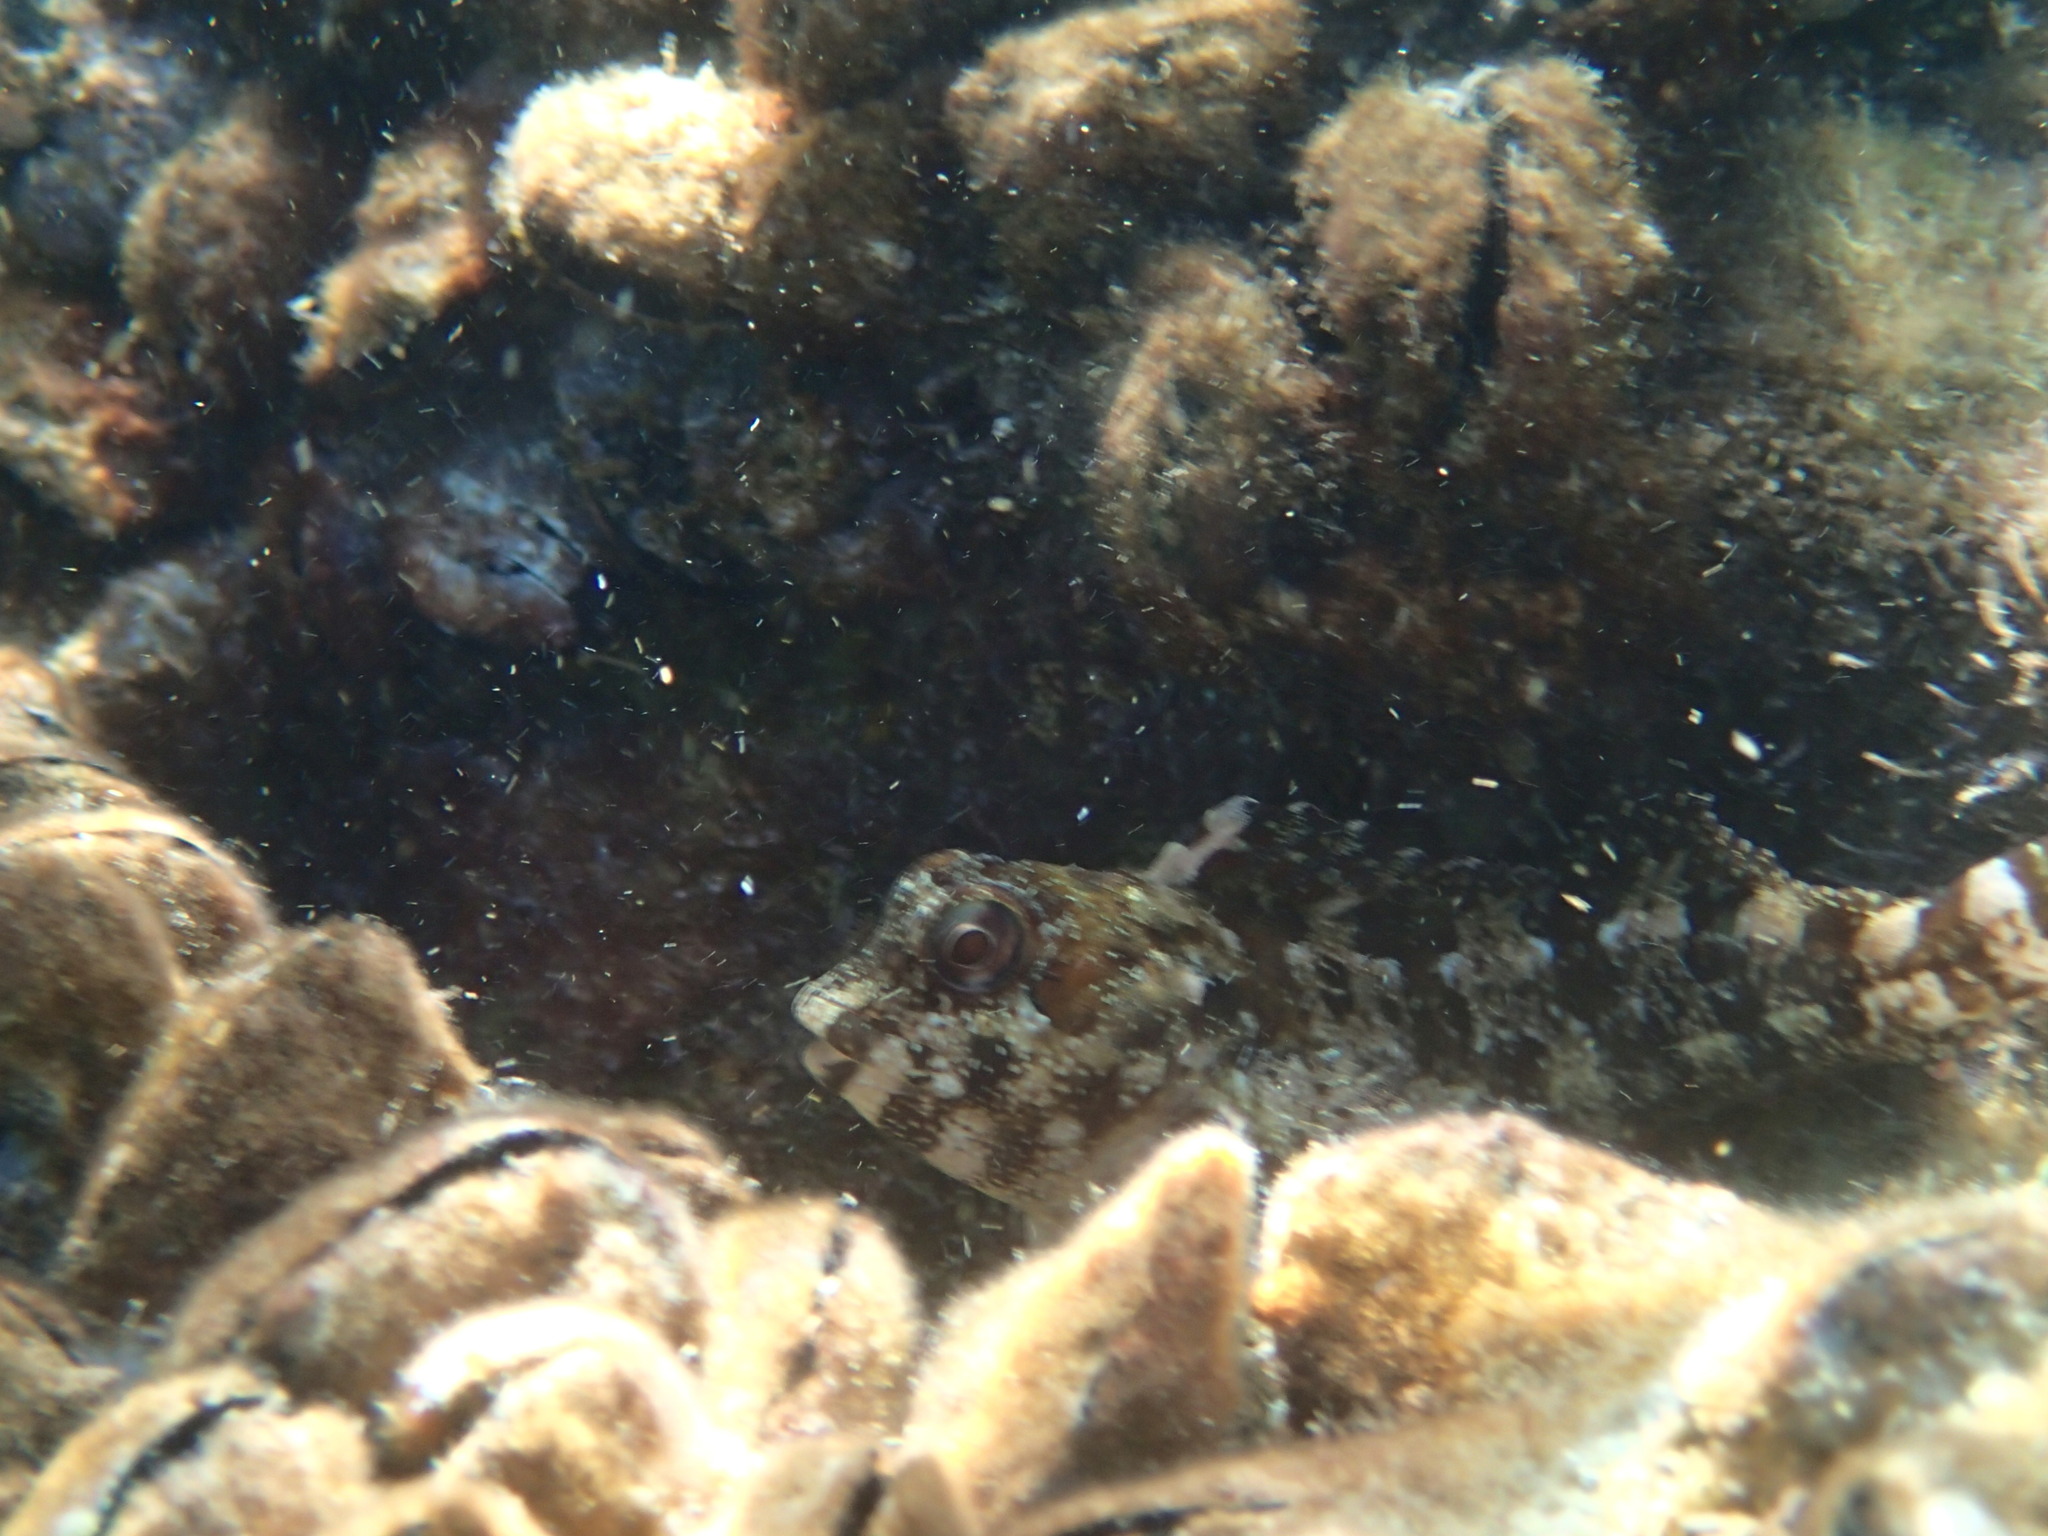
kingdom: Animalia
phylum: Chordata
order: Perciformes
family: Blenniidae
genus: Lipophrys
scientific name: Lipophrys trigloides
